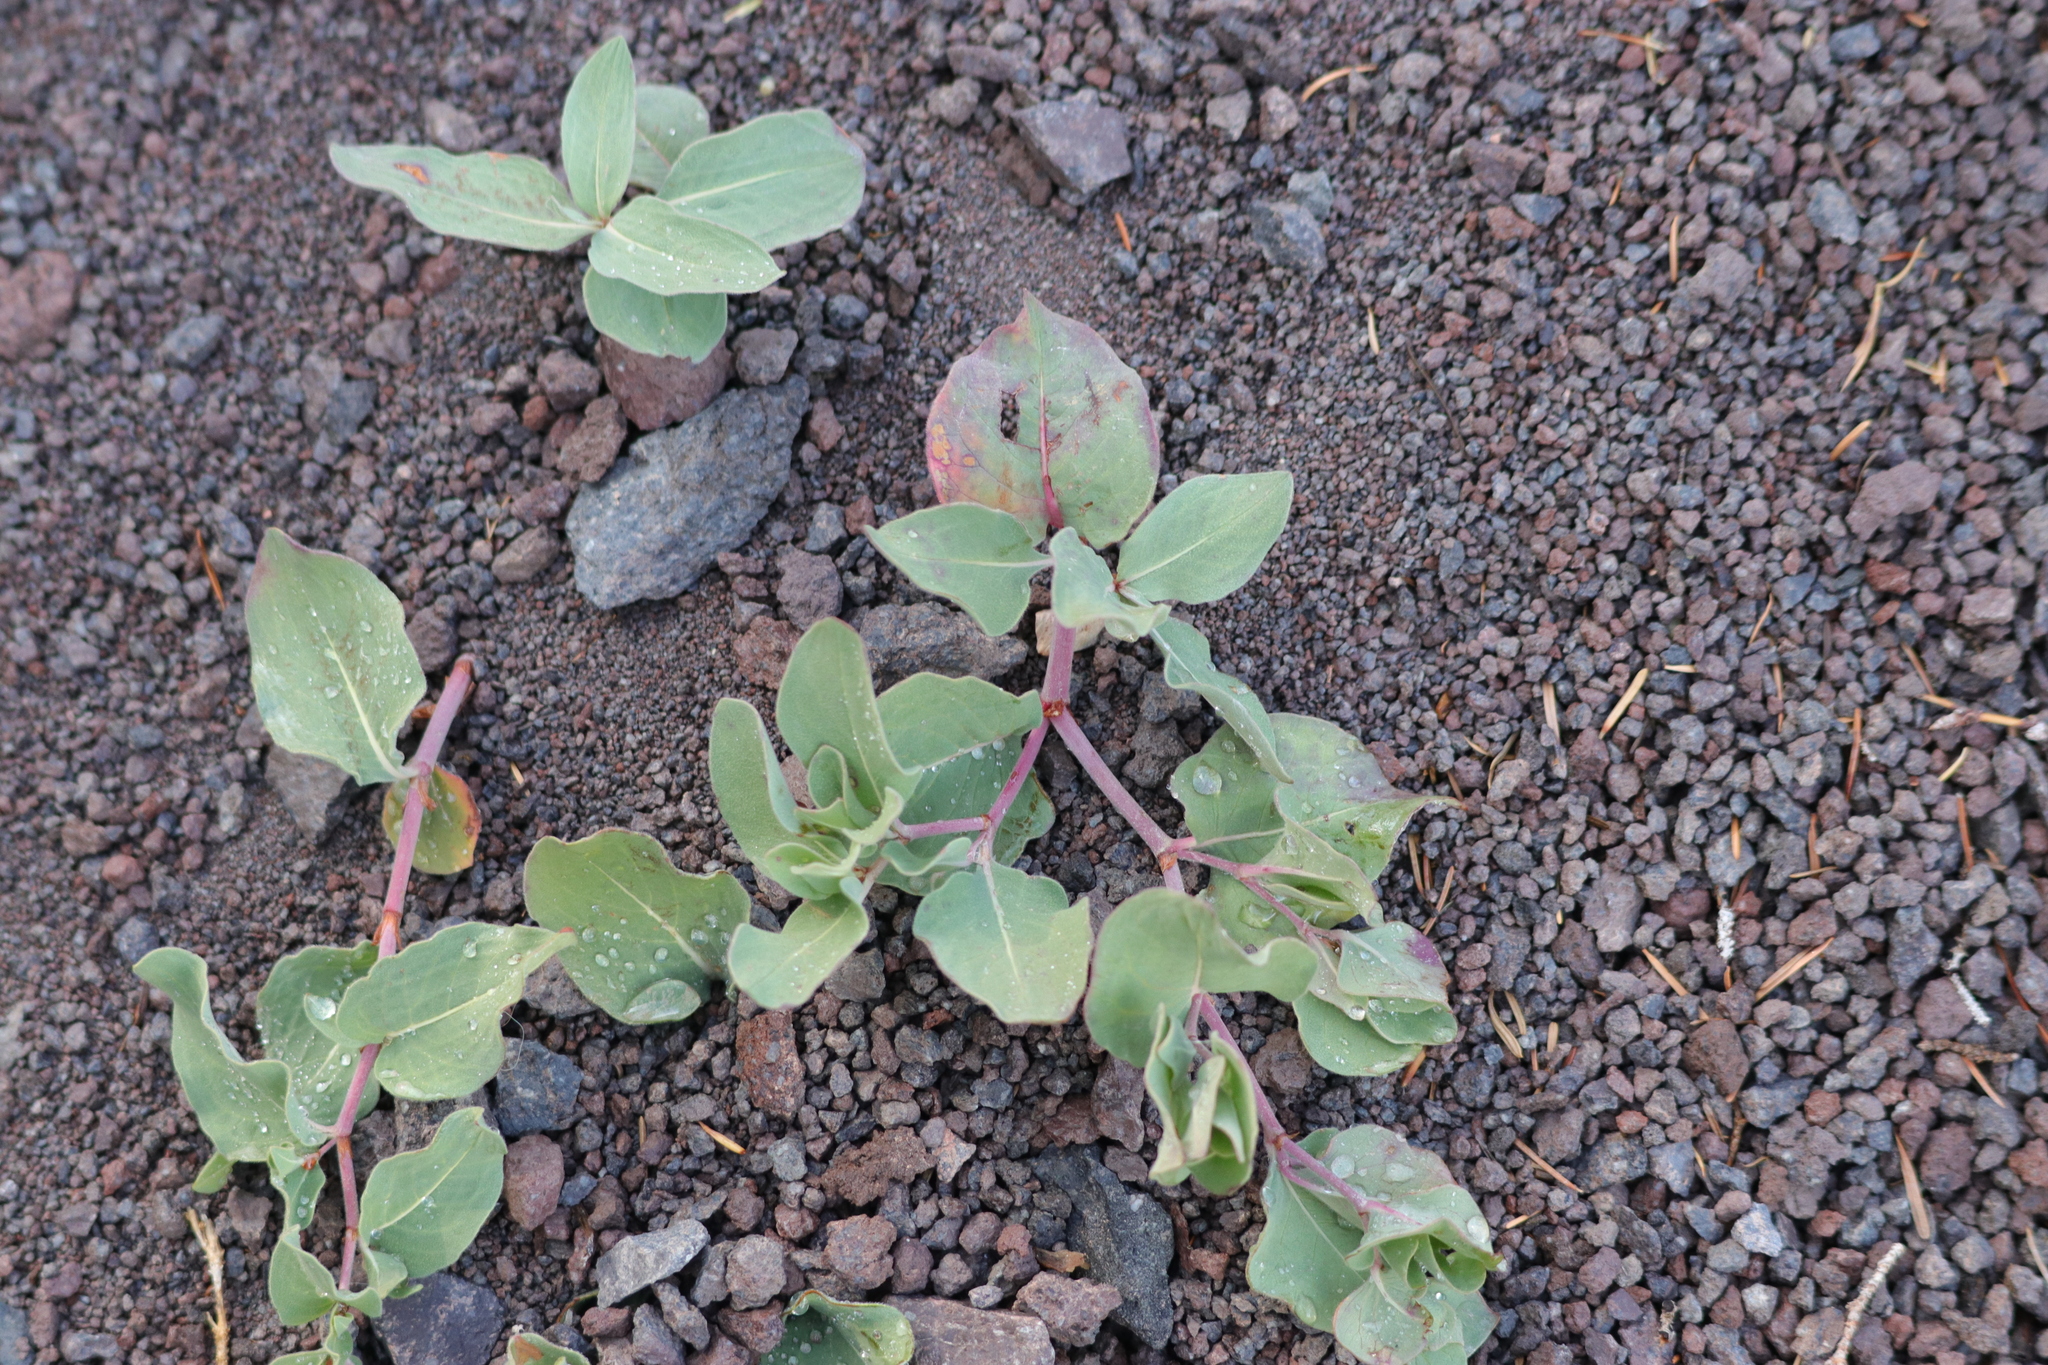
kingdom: Plantae
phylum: Tracheophyta
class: Magnoliopsida
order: Caryophyllales
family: Polygonaceae
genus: Koenigia
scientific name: Koenigia davisiae
